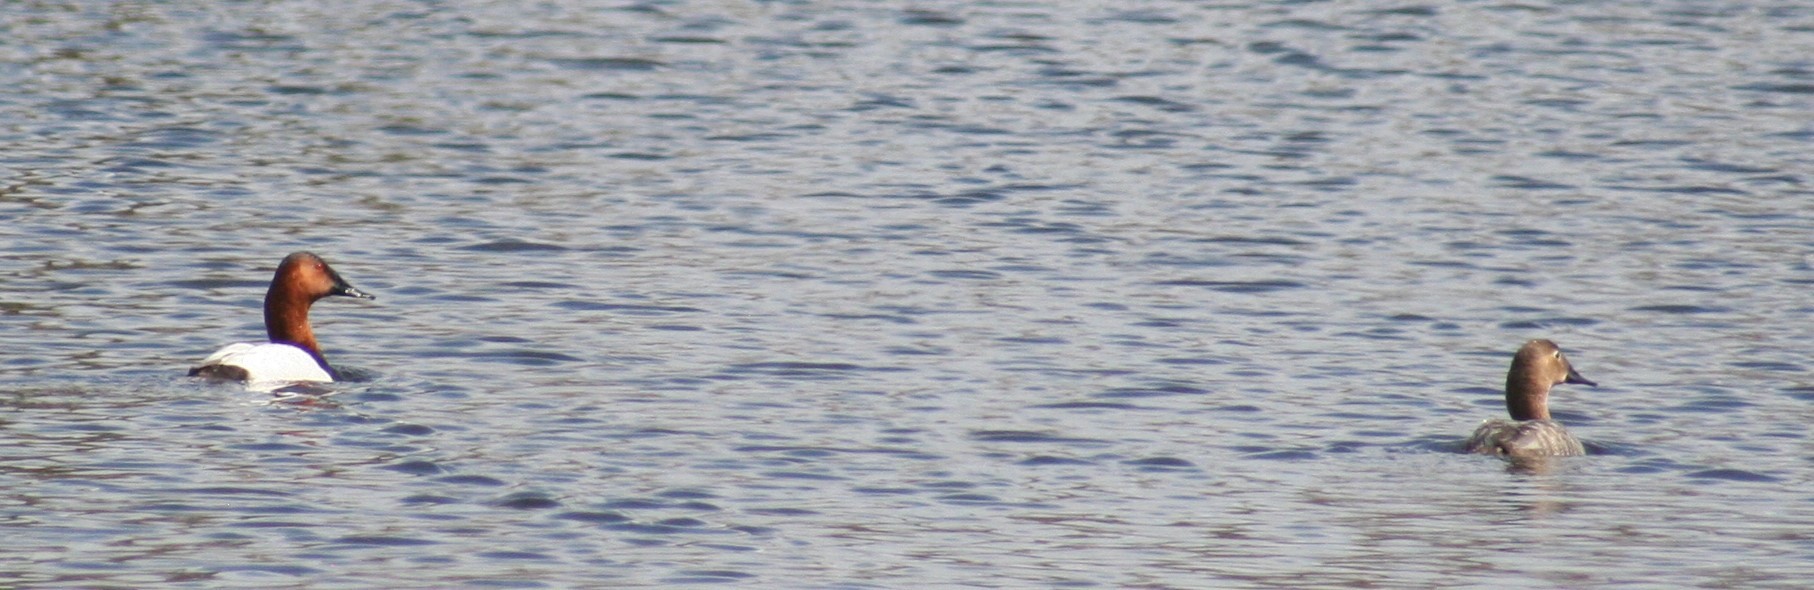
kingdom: Animalia
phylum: Chordata
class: Aves
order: Anseriformes
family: Anatidae
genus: Aythya
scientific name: Aythya valisineria
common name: Canvasback
